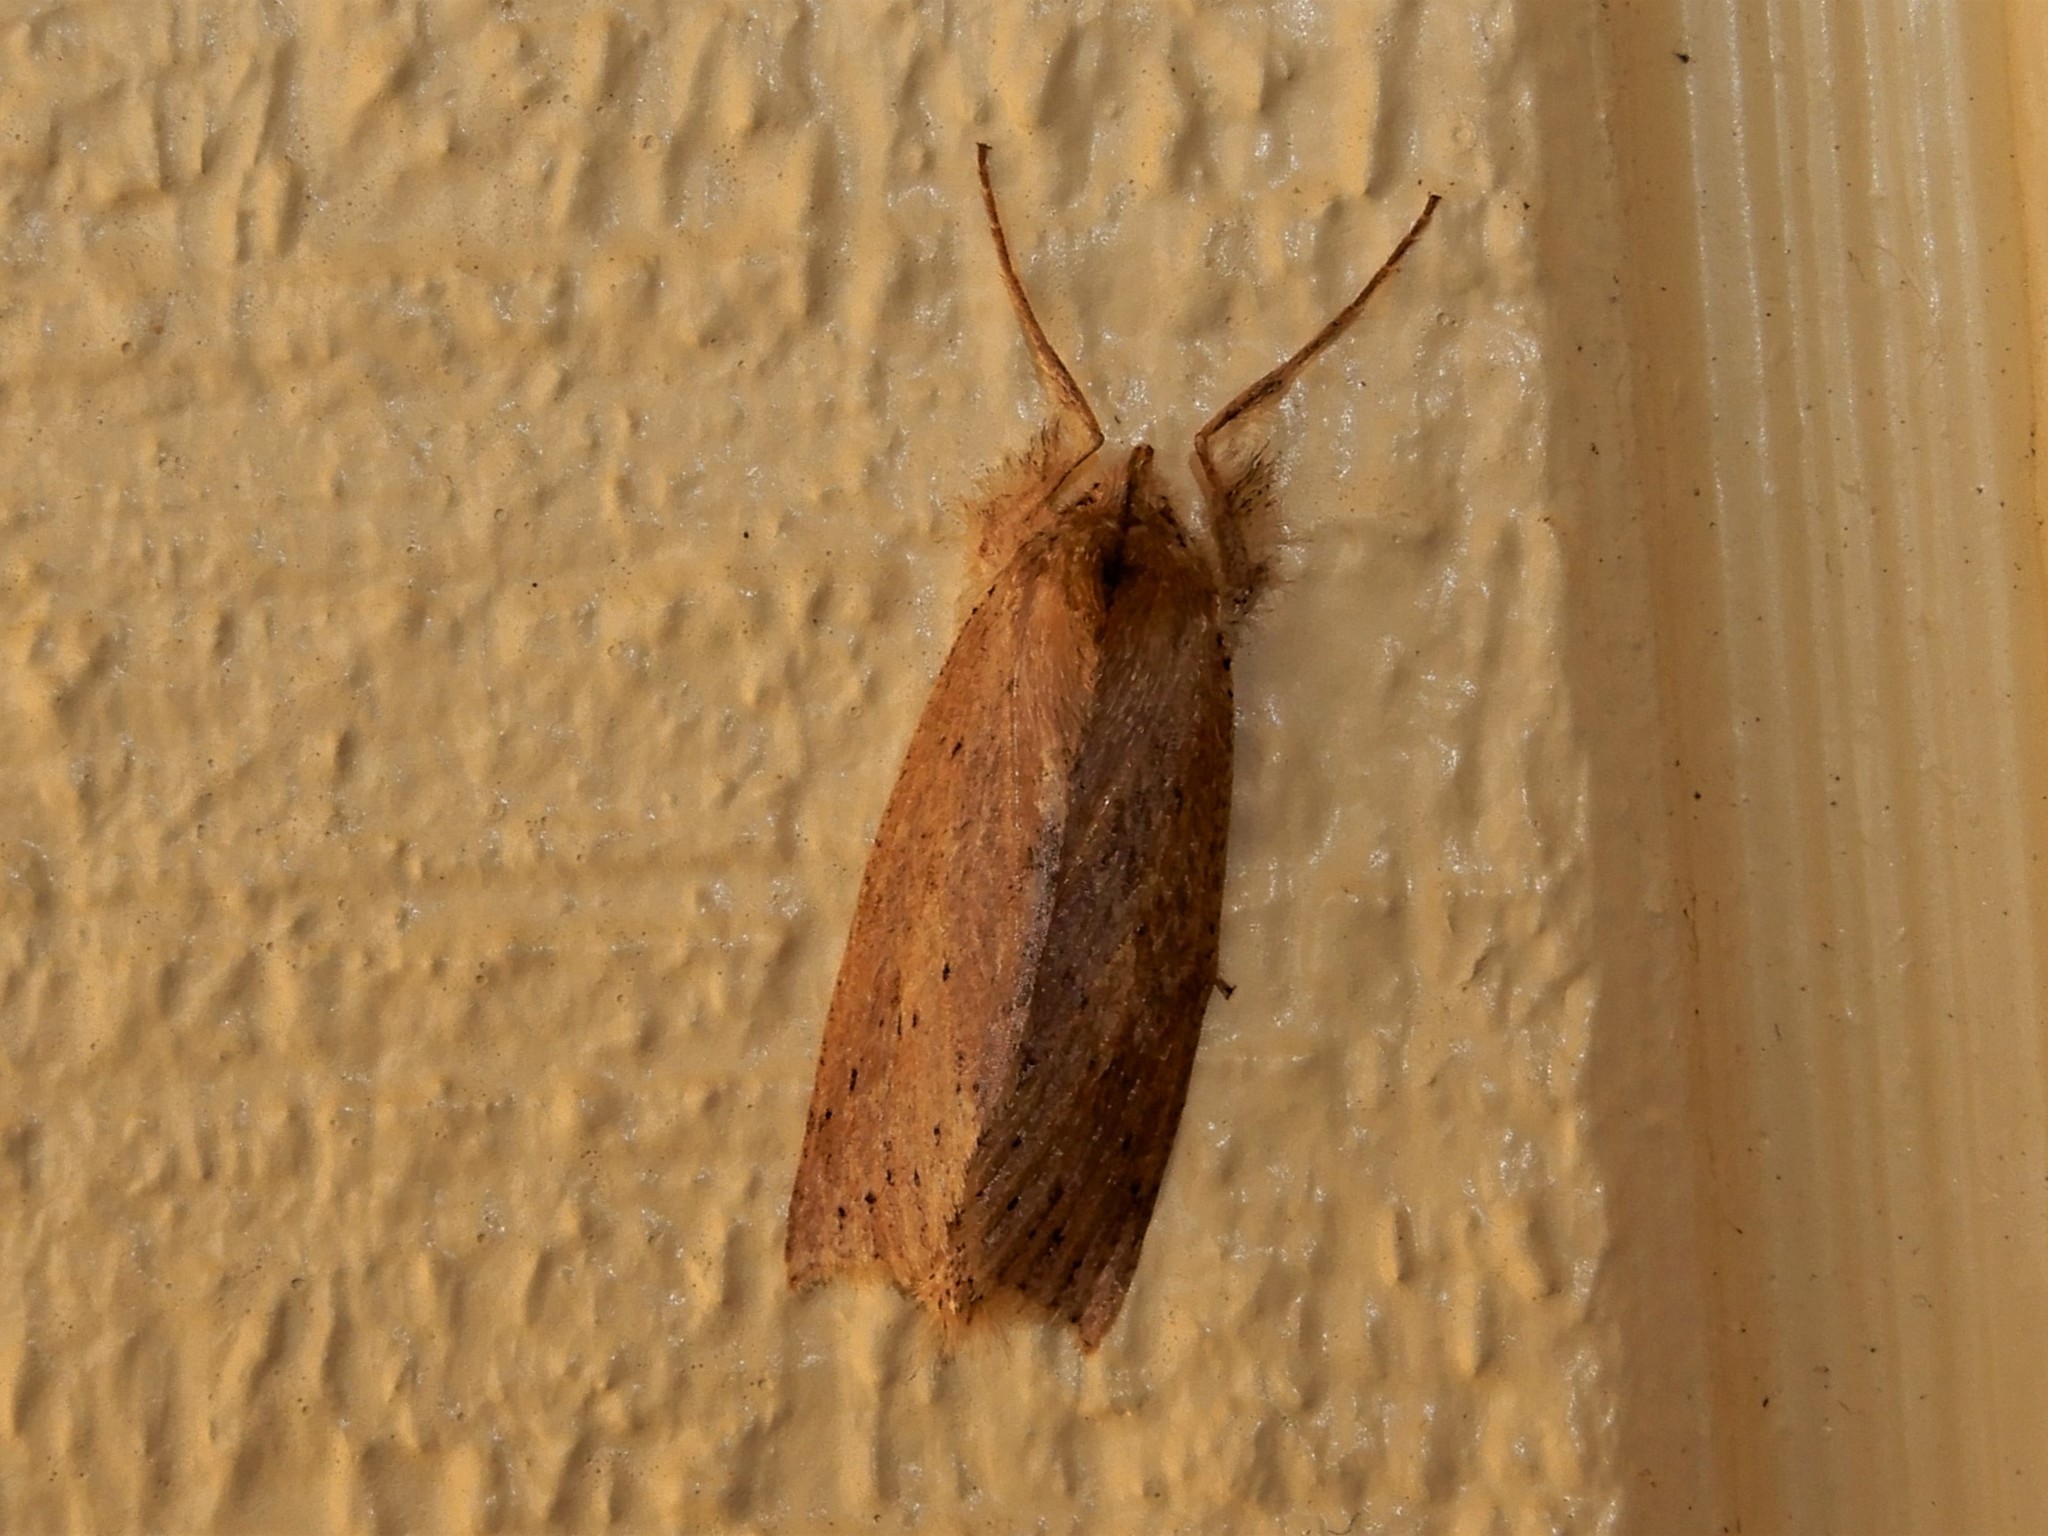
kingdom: Animalia
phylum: Arthropoda
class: Insecta
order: Lepidoptera
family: Geometridae
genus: Declana
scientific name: Declana leptomera
